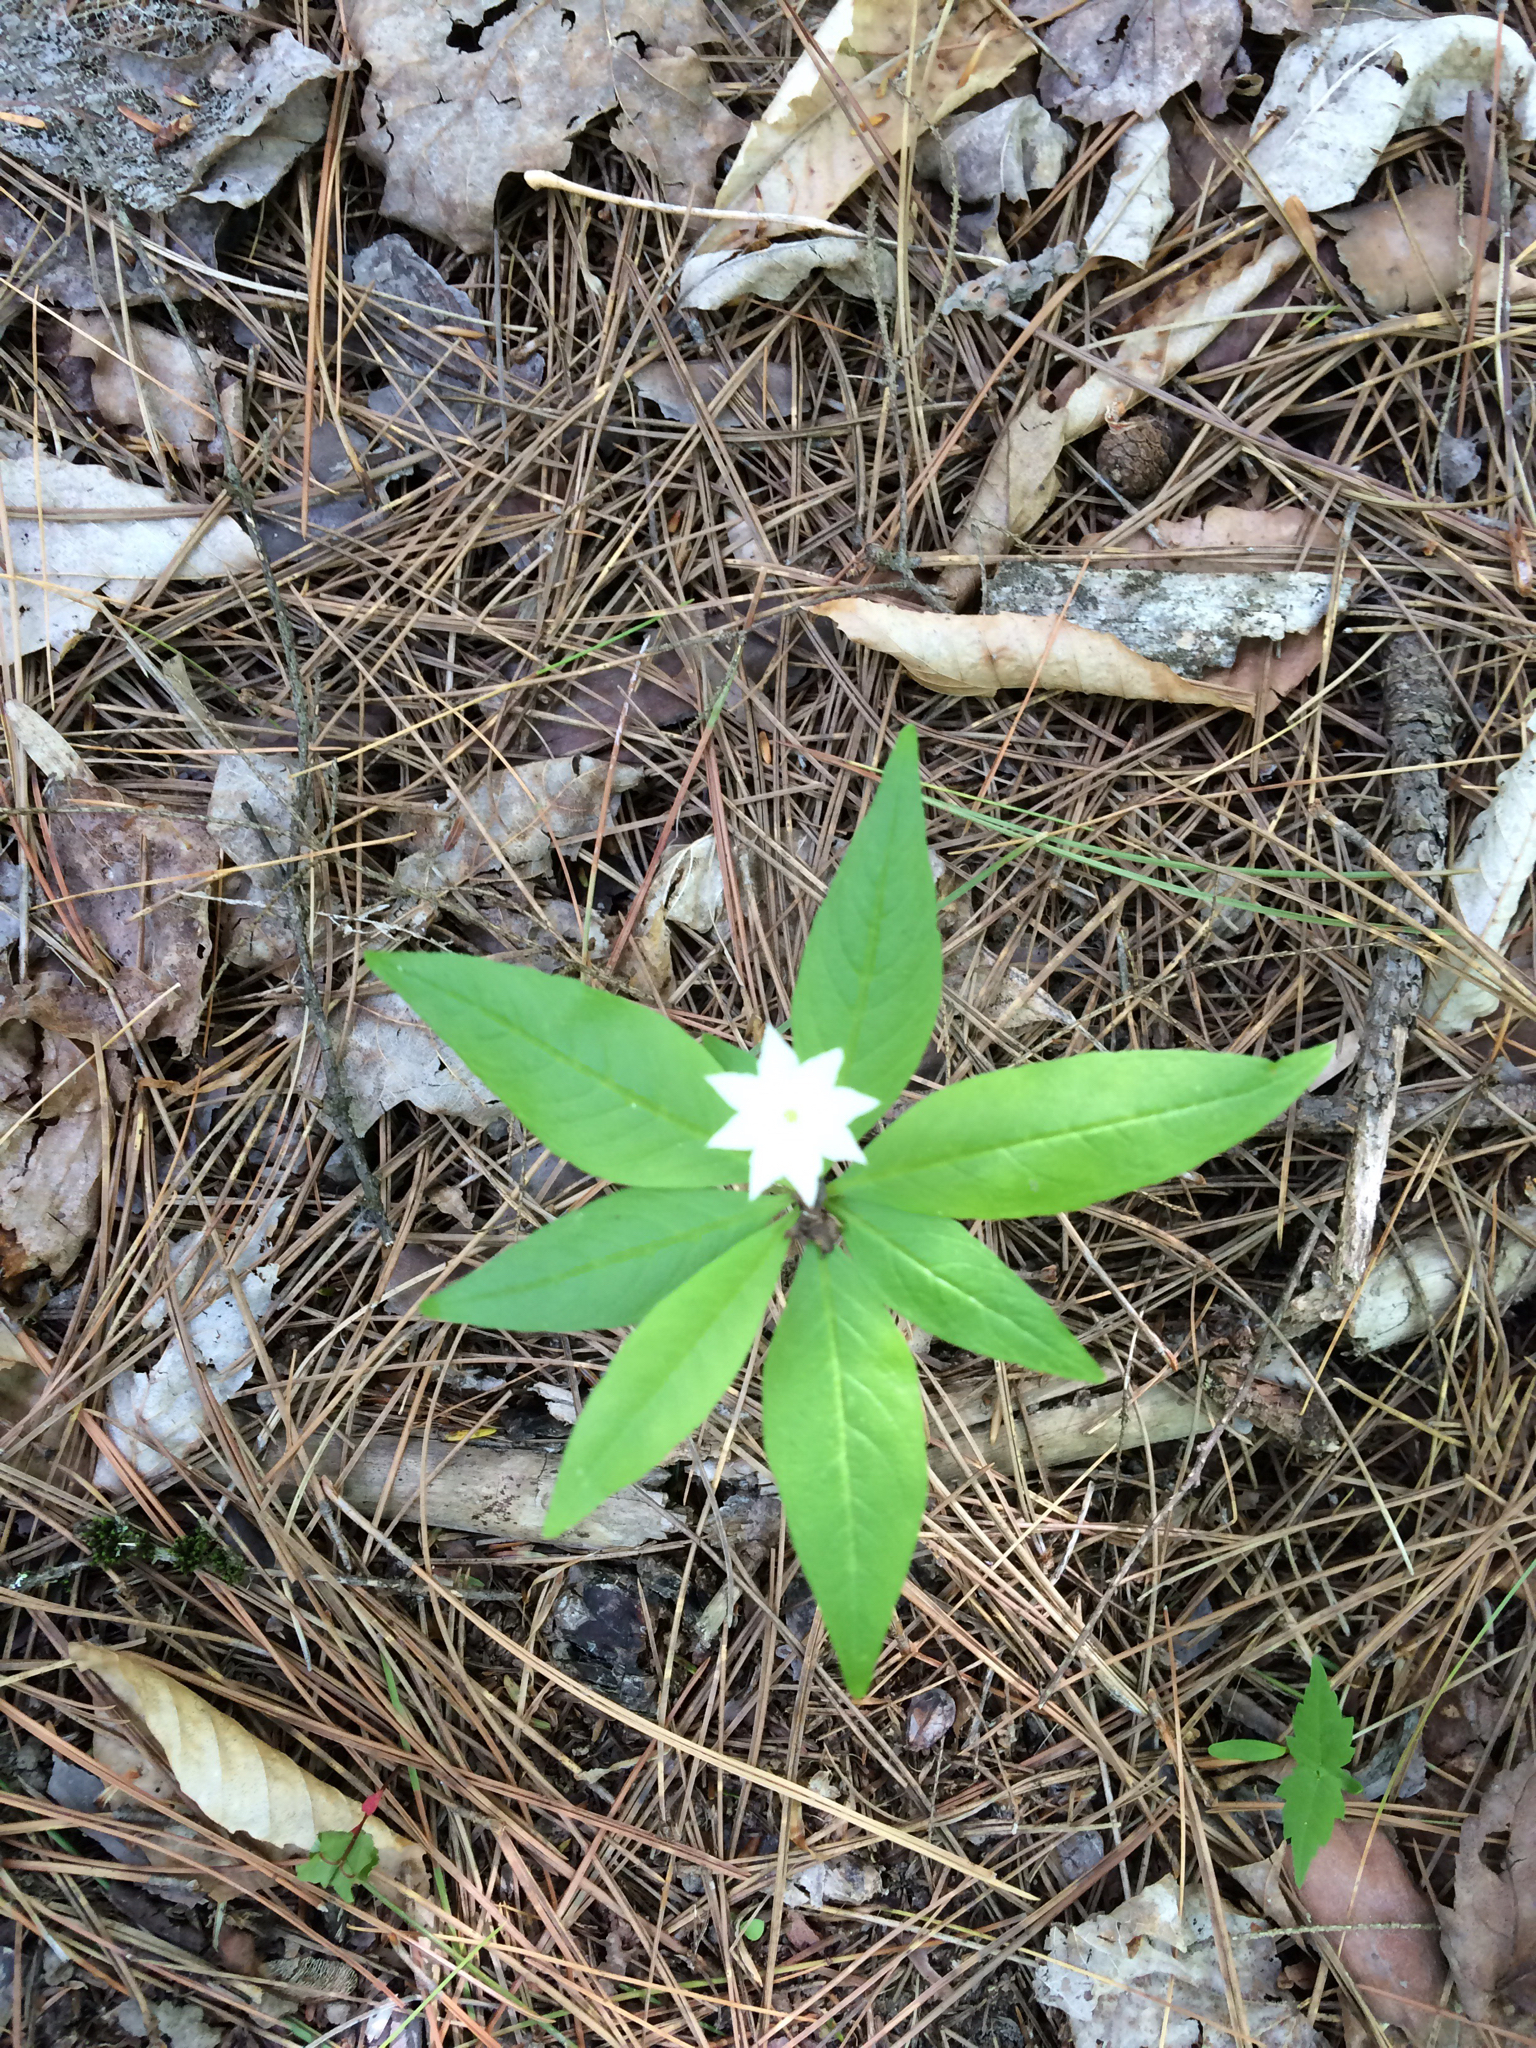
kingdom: Plantae
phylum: Tracheophyta
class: Magnoliopsida
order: Ericales
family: Primulaceae
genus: Lysimachia
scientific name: Lysimachia borealis
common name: American starflower
